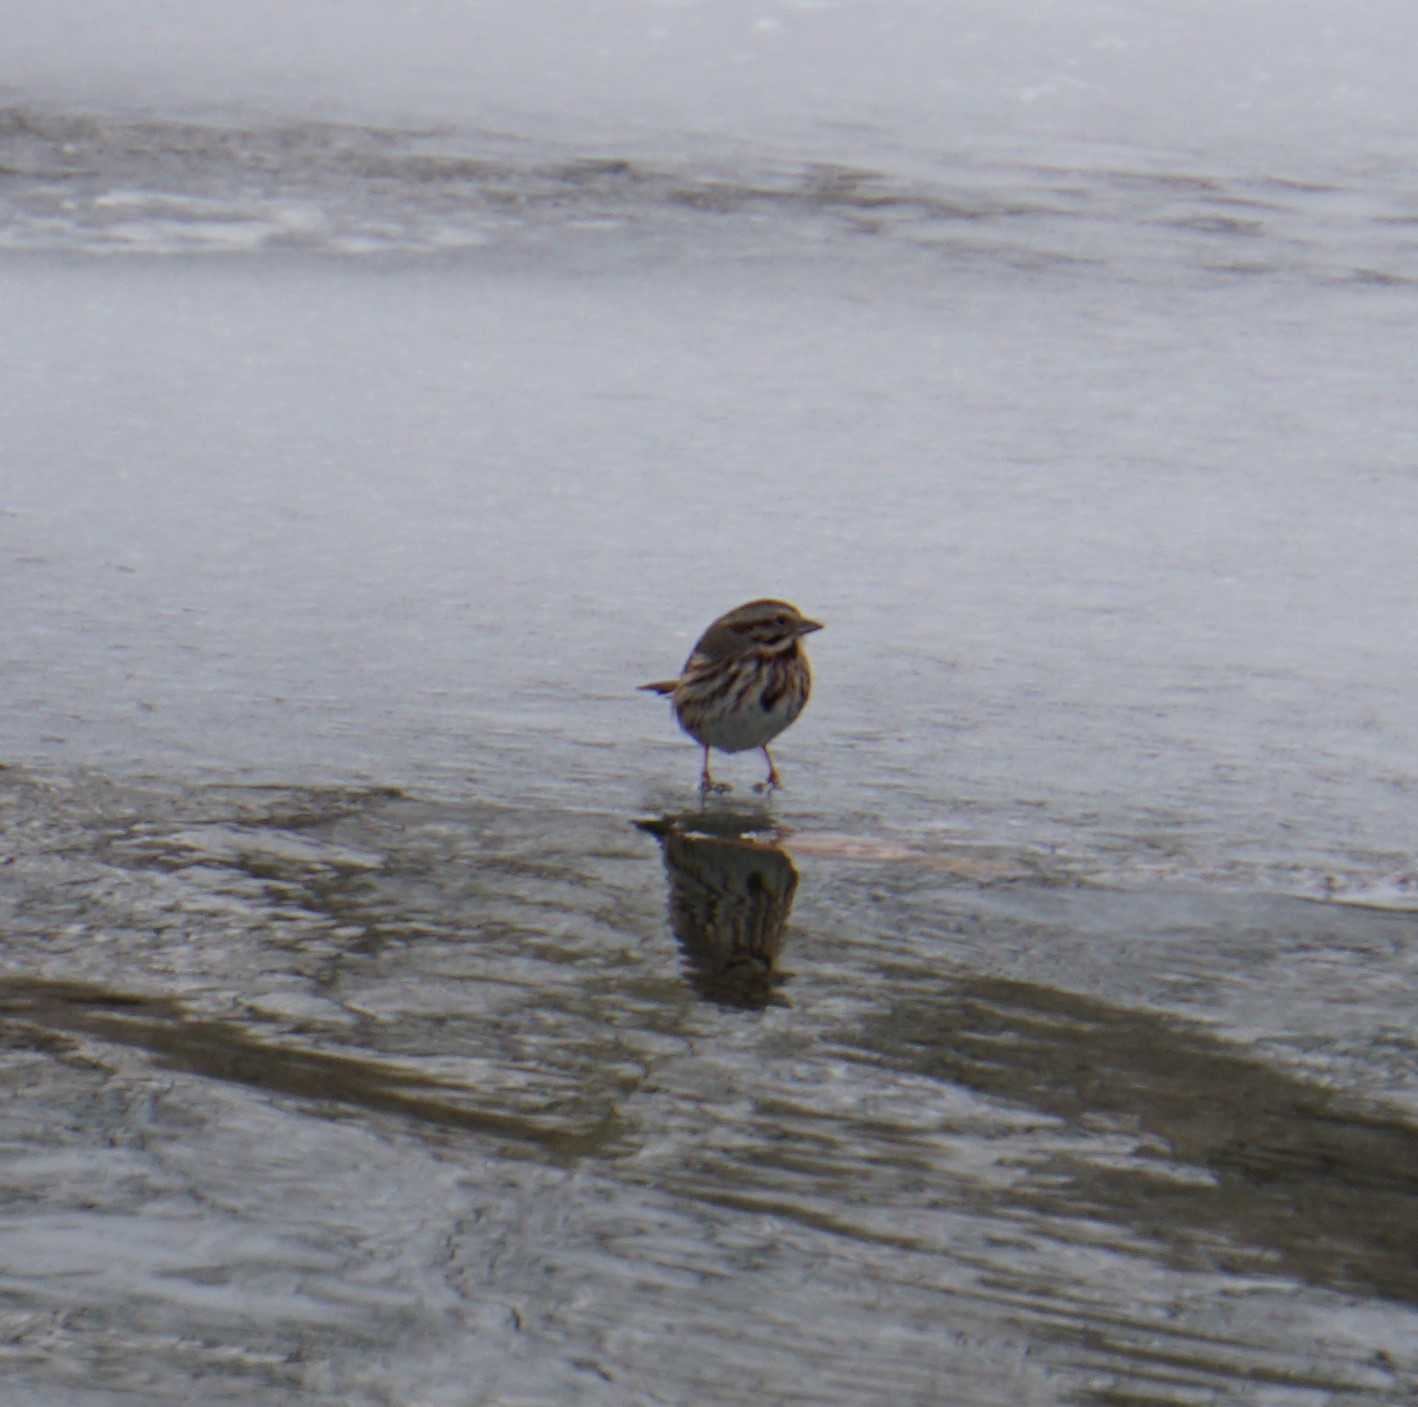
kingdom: Animalia
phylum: Chordata
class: Aves
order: Passeriformes
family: Passerellidae
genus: Melospiza
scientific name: Melospiza melodia
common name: Song sparrow
